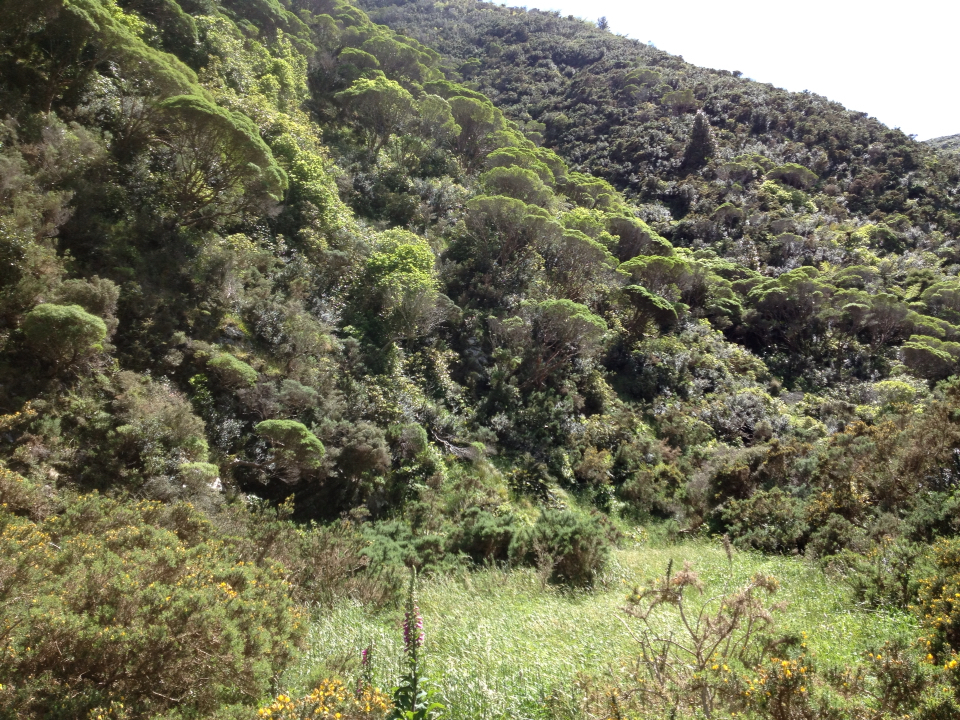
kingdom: Plantae
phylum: Tracheophyta
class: Magnoliopsida
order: Lamiales
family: Plantaginaceae
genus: Veronica
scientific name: Veronica parviflora
